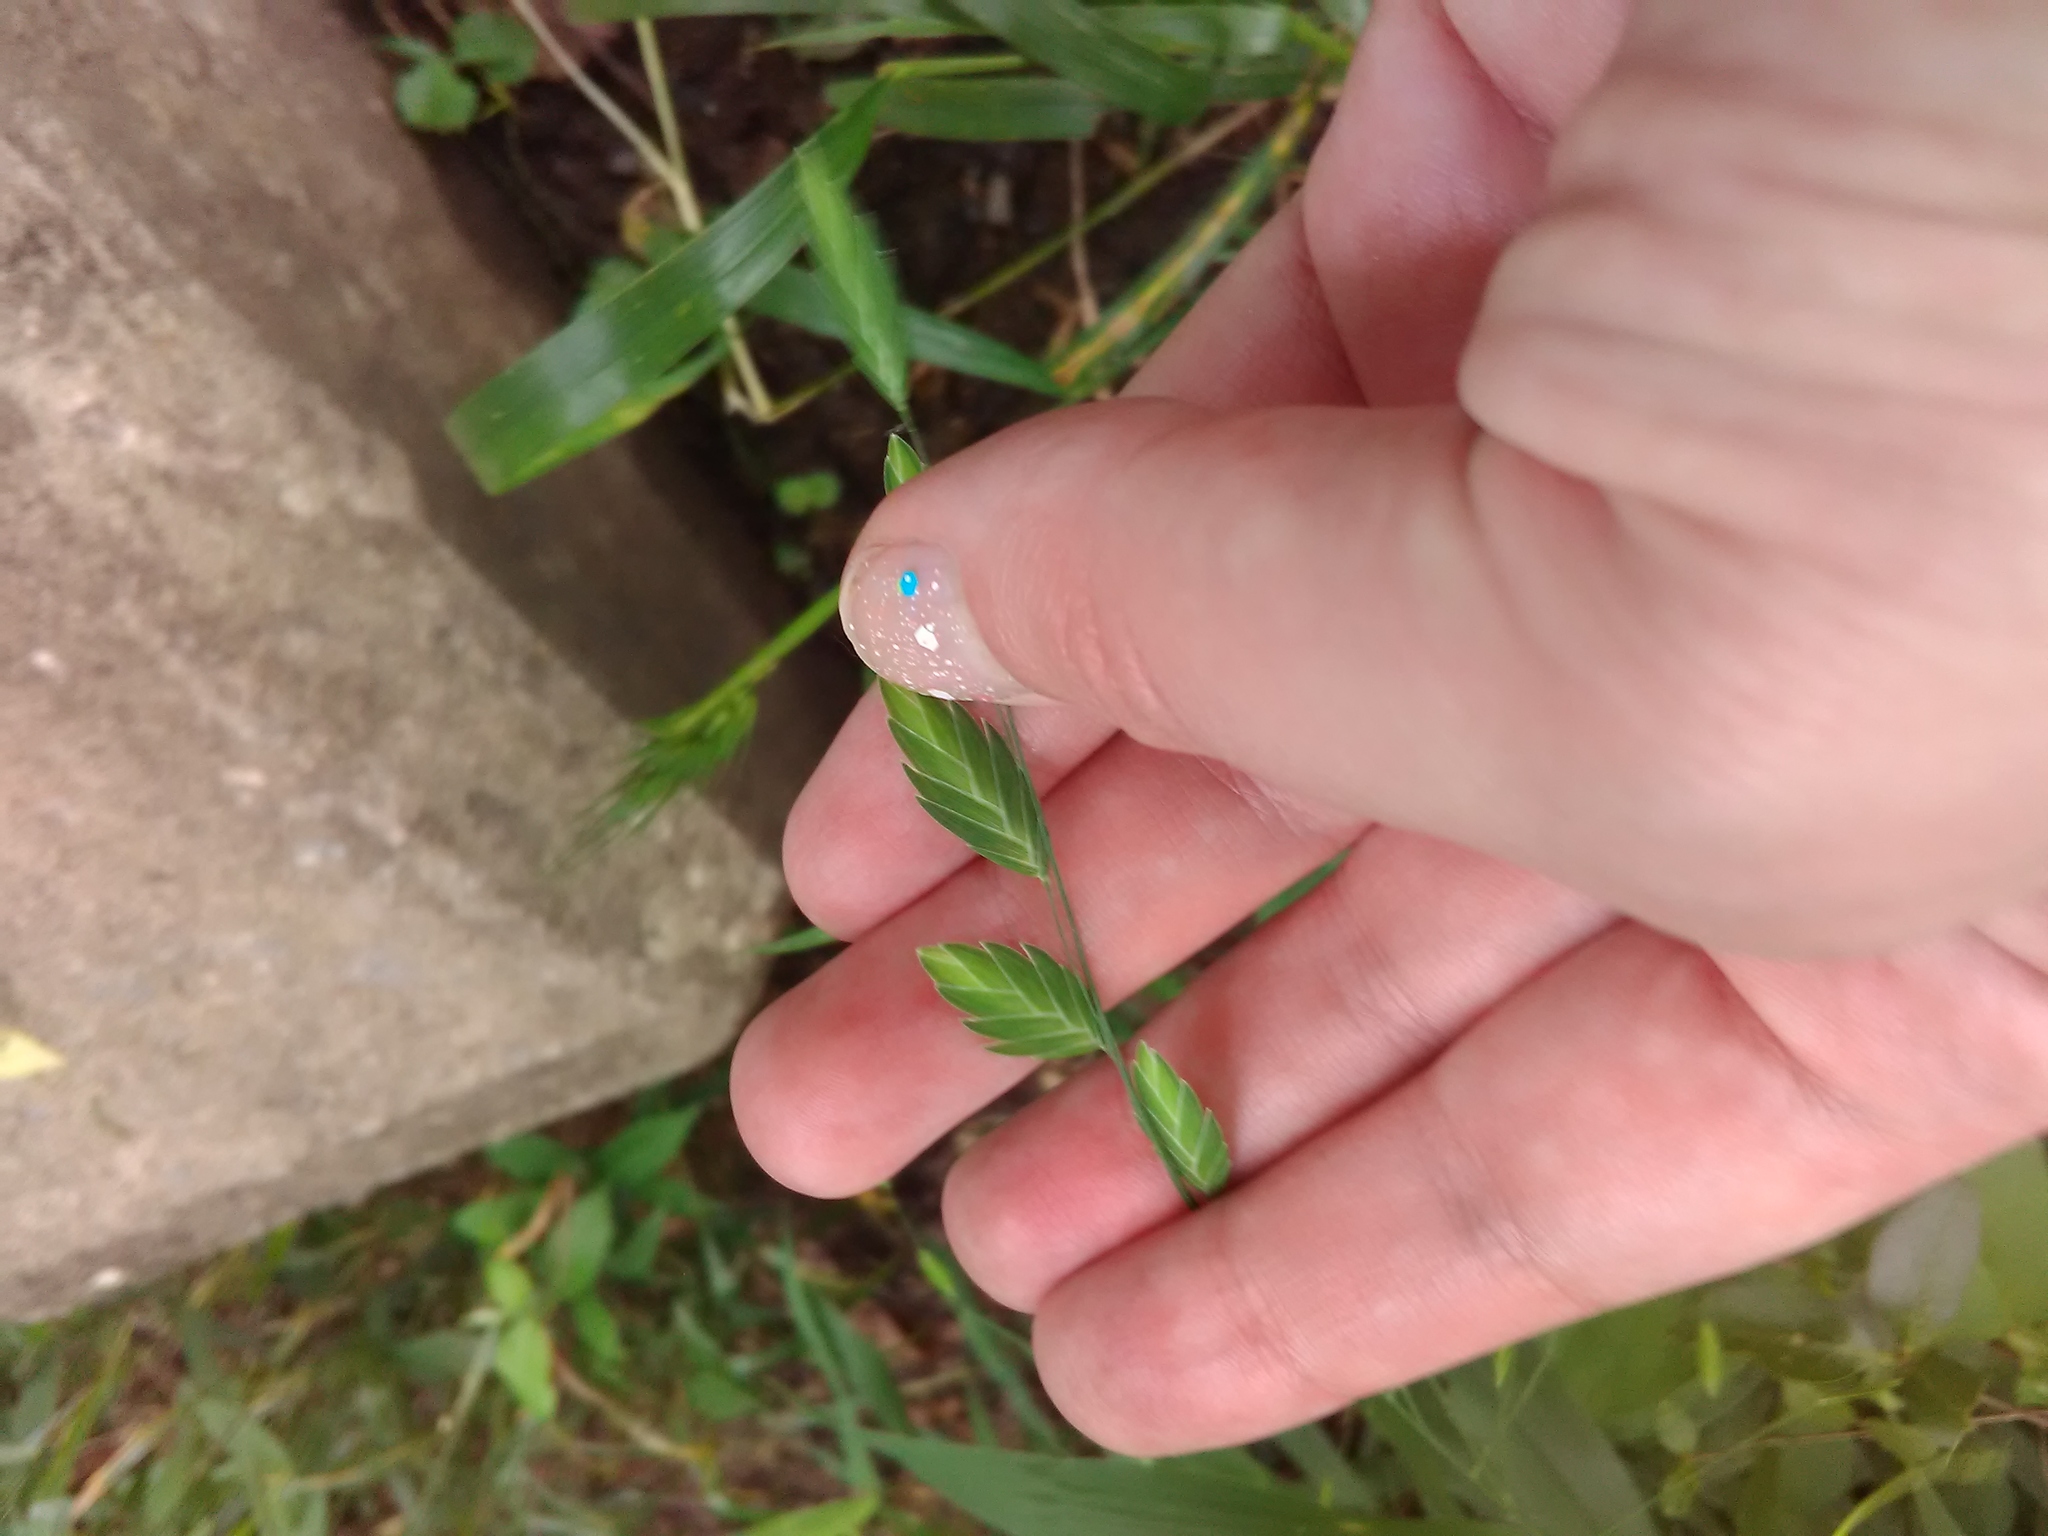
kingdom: Plantae
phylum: Tracheophyta
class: Liliopsida
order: Poales
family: Poaceae
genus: Chasmanthium
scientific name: Chasmanthium latifolium
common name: Broad-leaved chasmanthium
